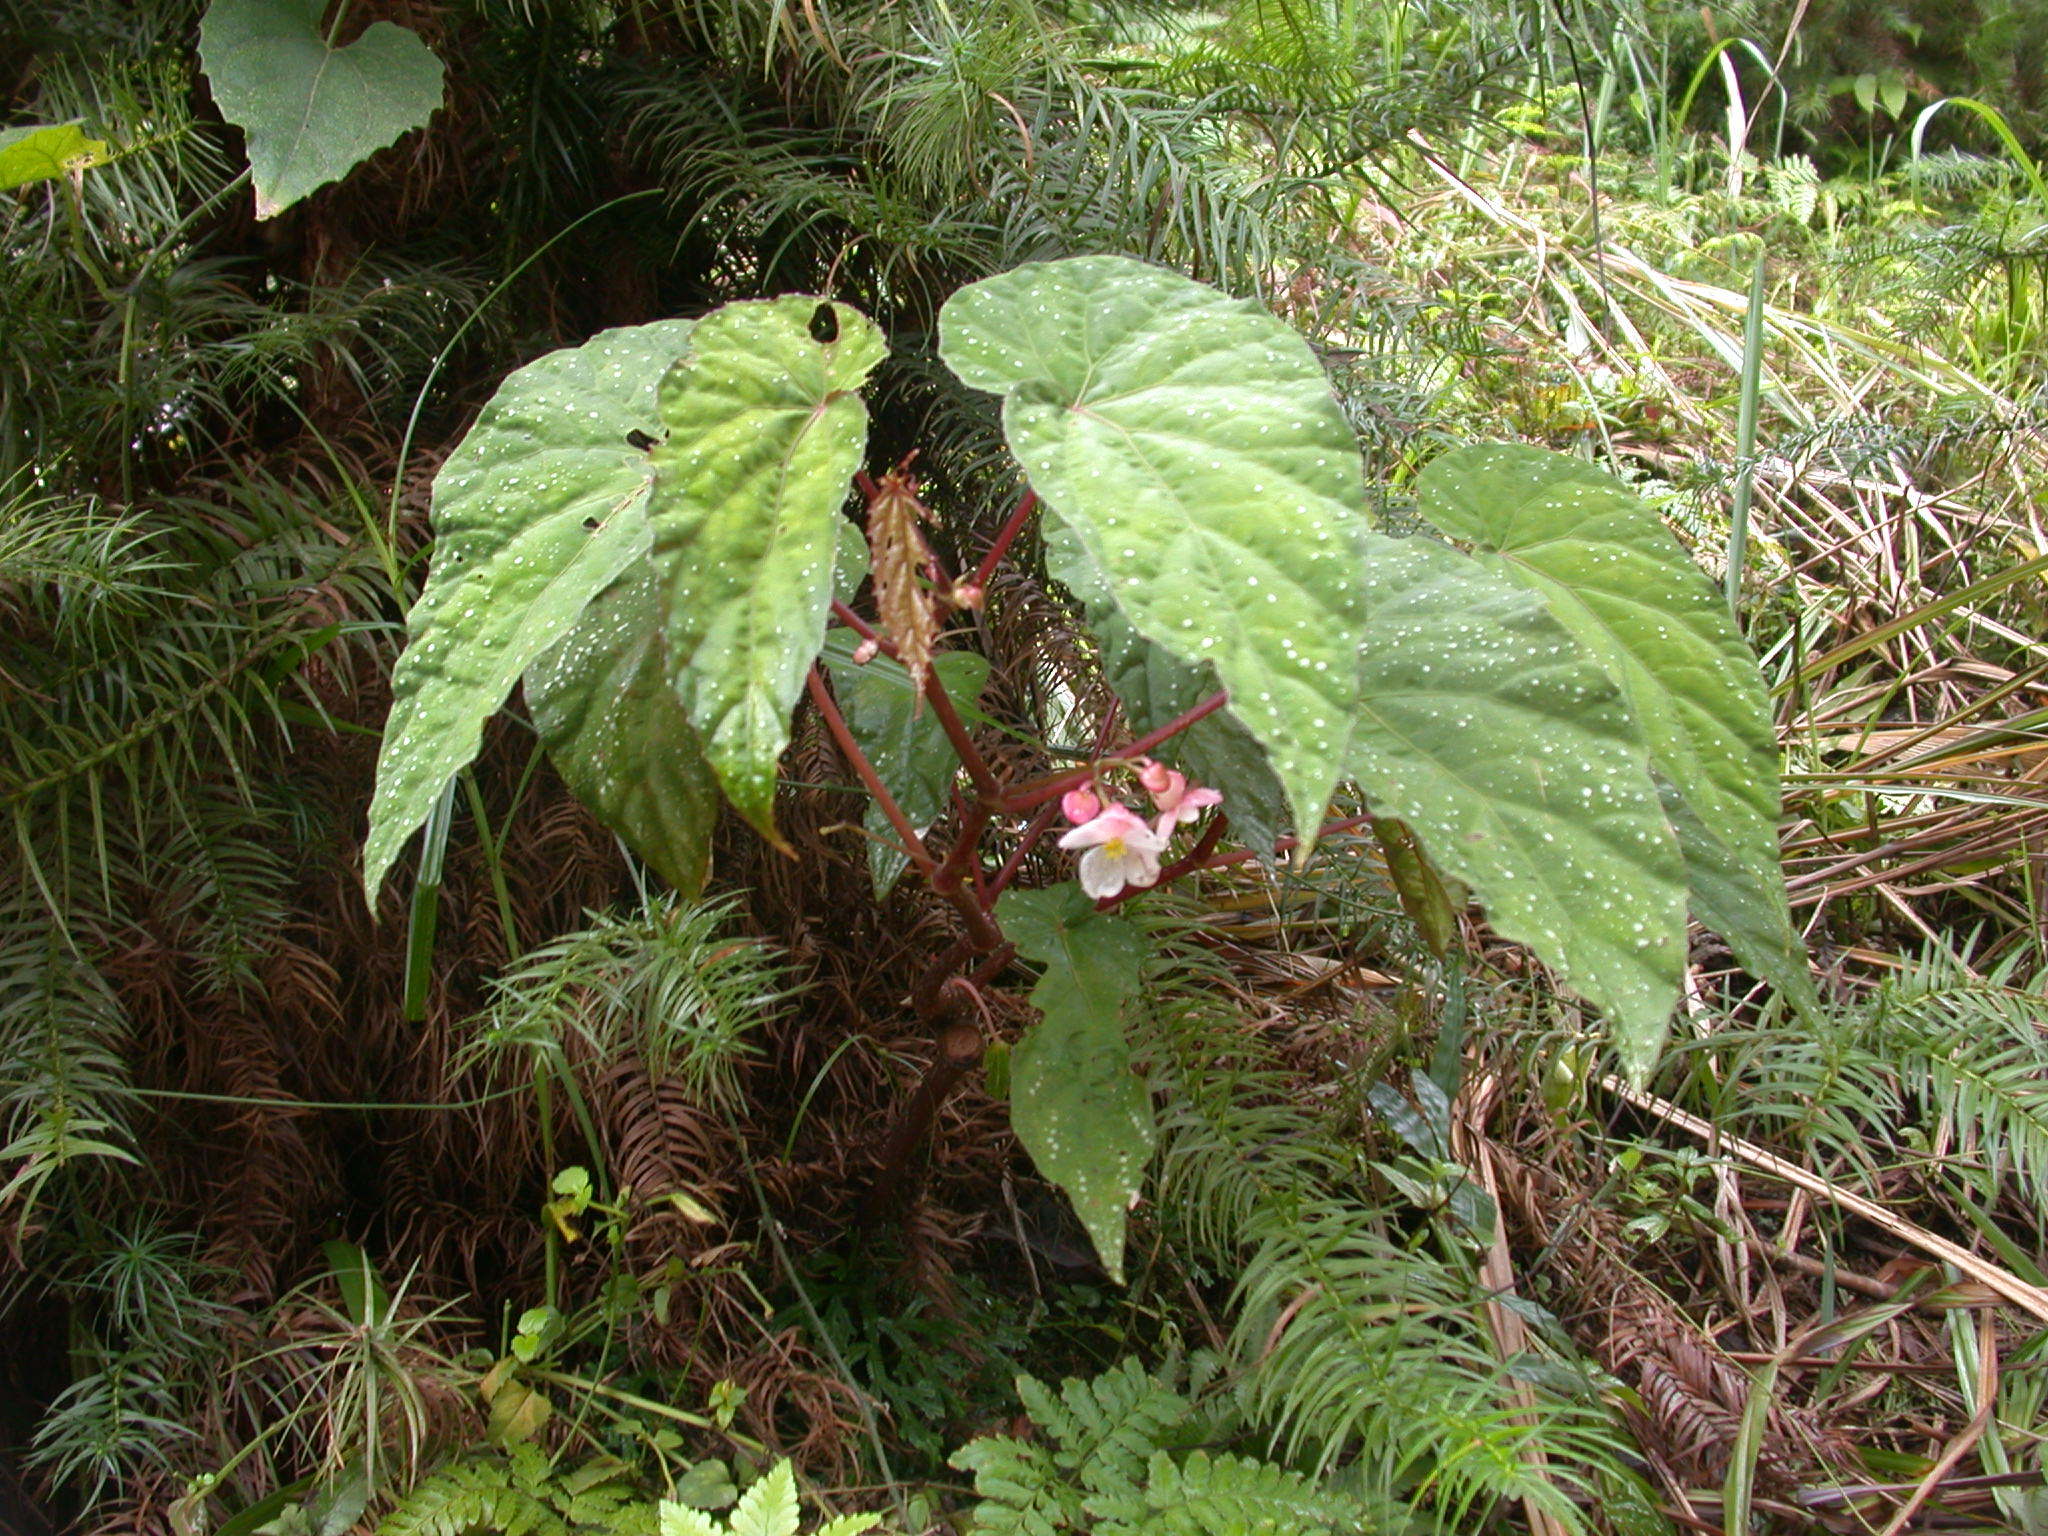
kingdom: Plantae
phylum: Tracheophyta
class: Magnoliopsida
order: Cucurbitales
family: Begoniaceae
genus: Begonia
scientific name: Begonia lukuana
